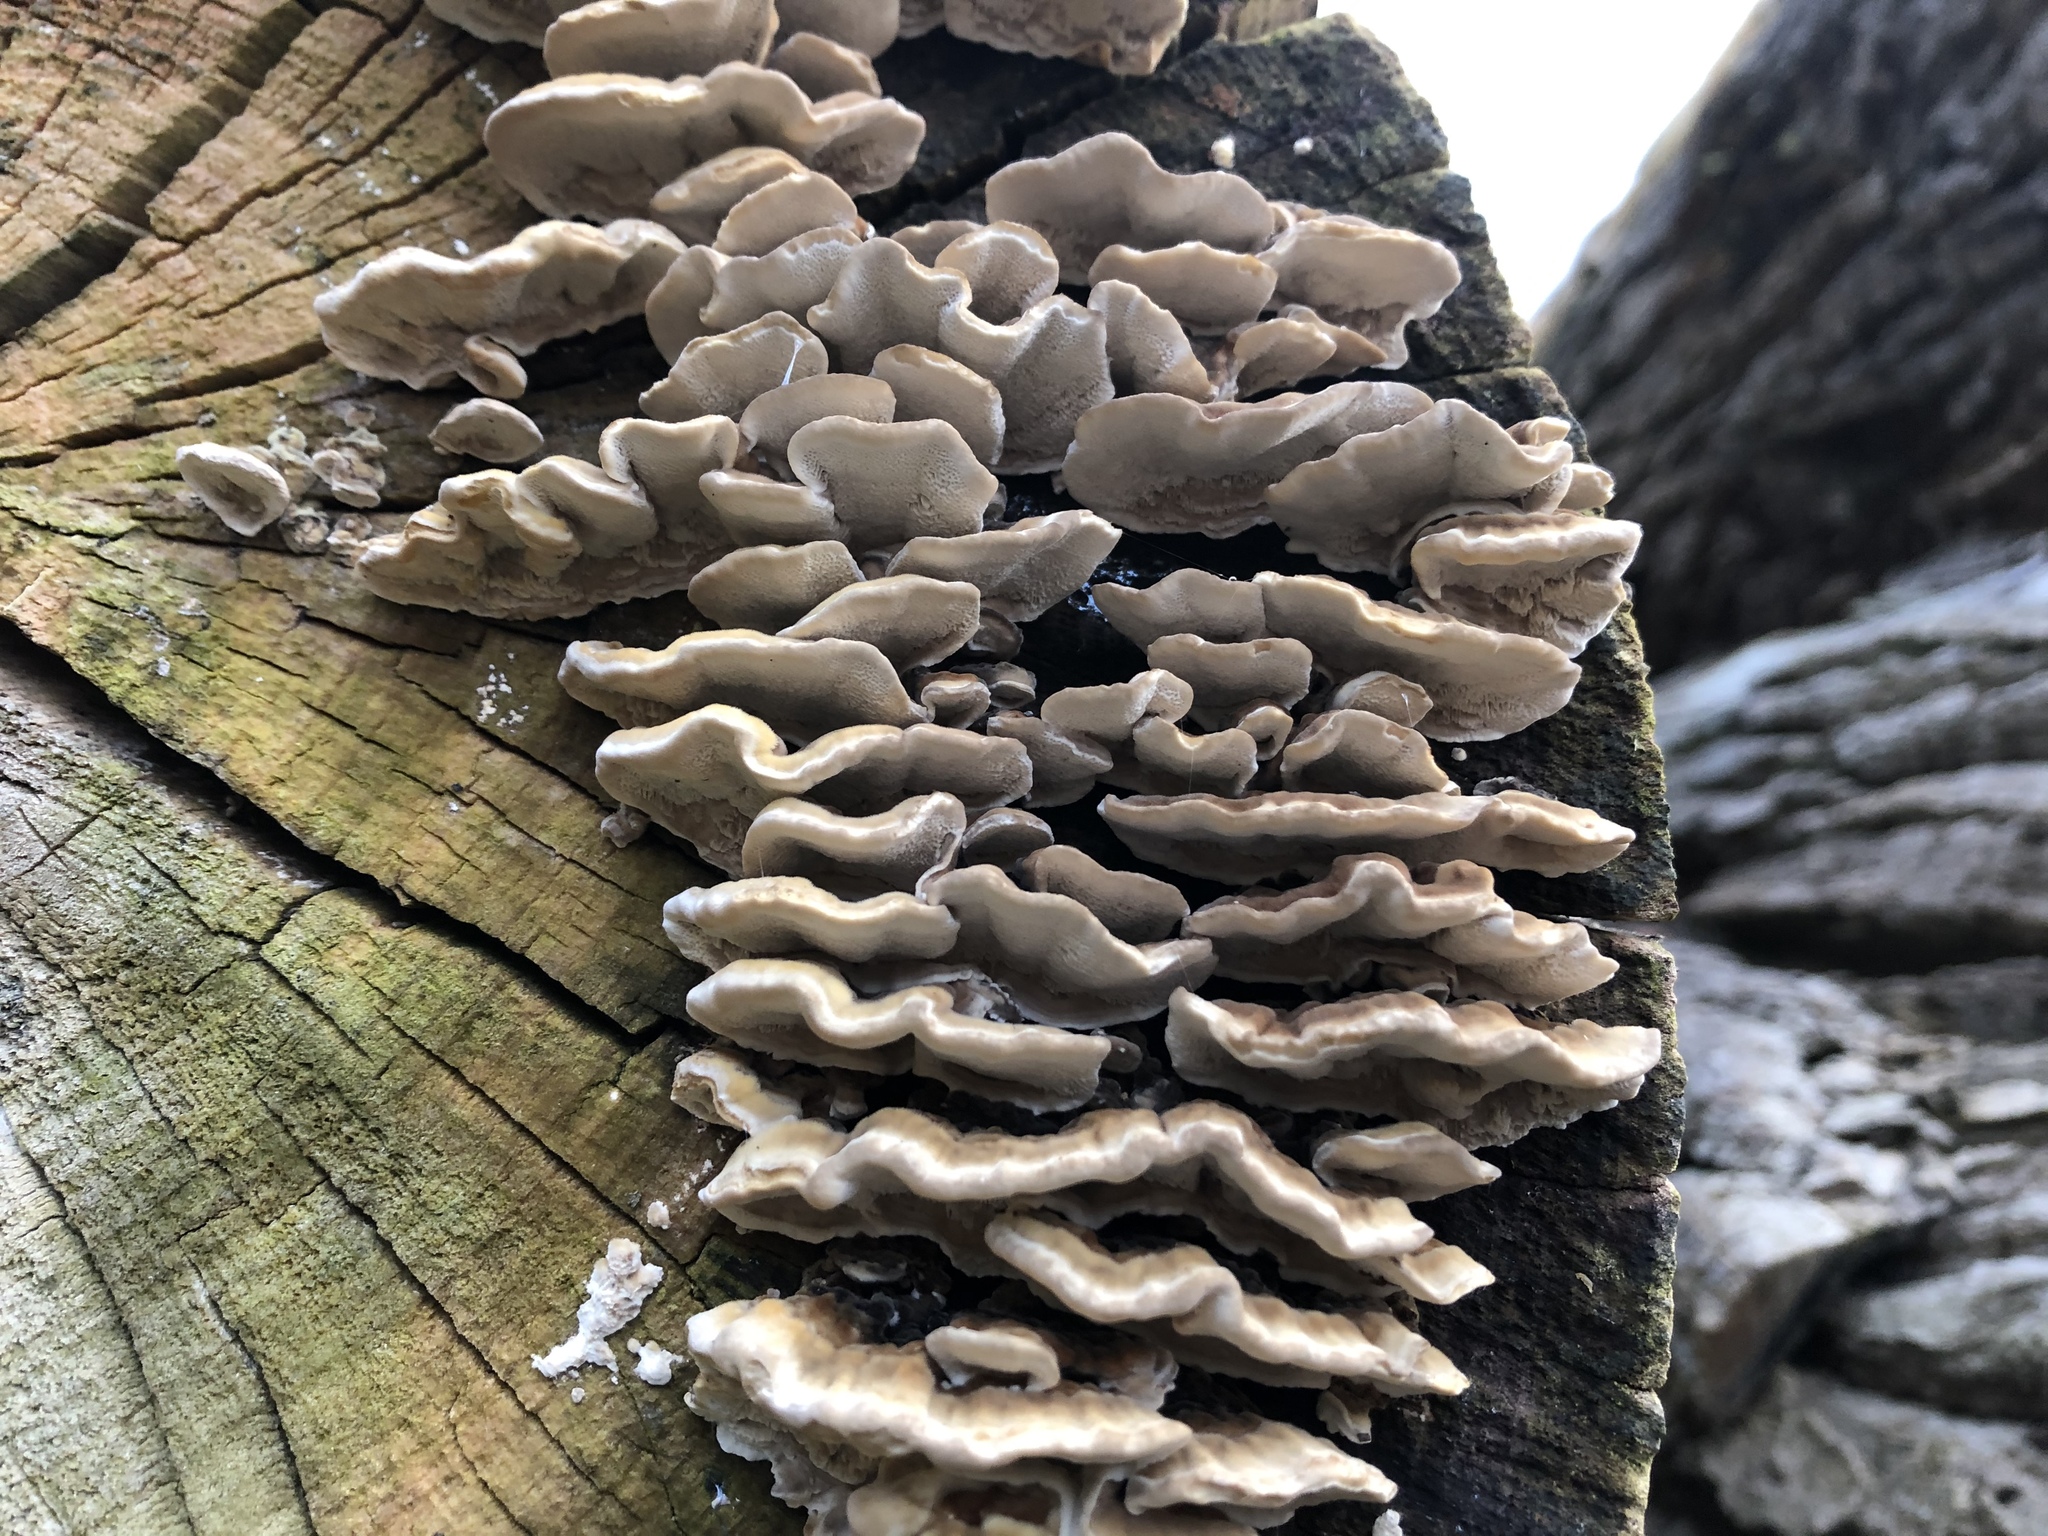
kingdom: Fungi
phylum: Basidiomycota
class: Agaricomycetes
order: Polyporales
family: Phanerochaetaceae
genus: Bjerkandera
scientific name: Bjerkandera adusta
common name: Smoky bracket
